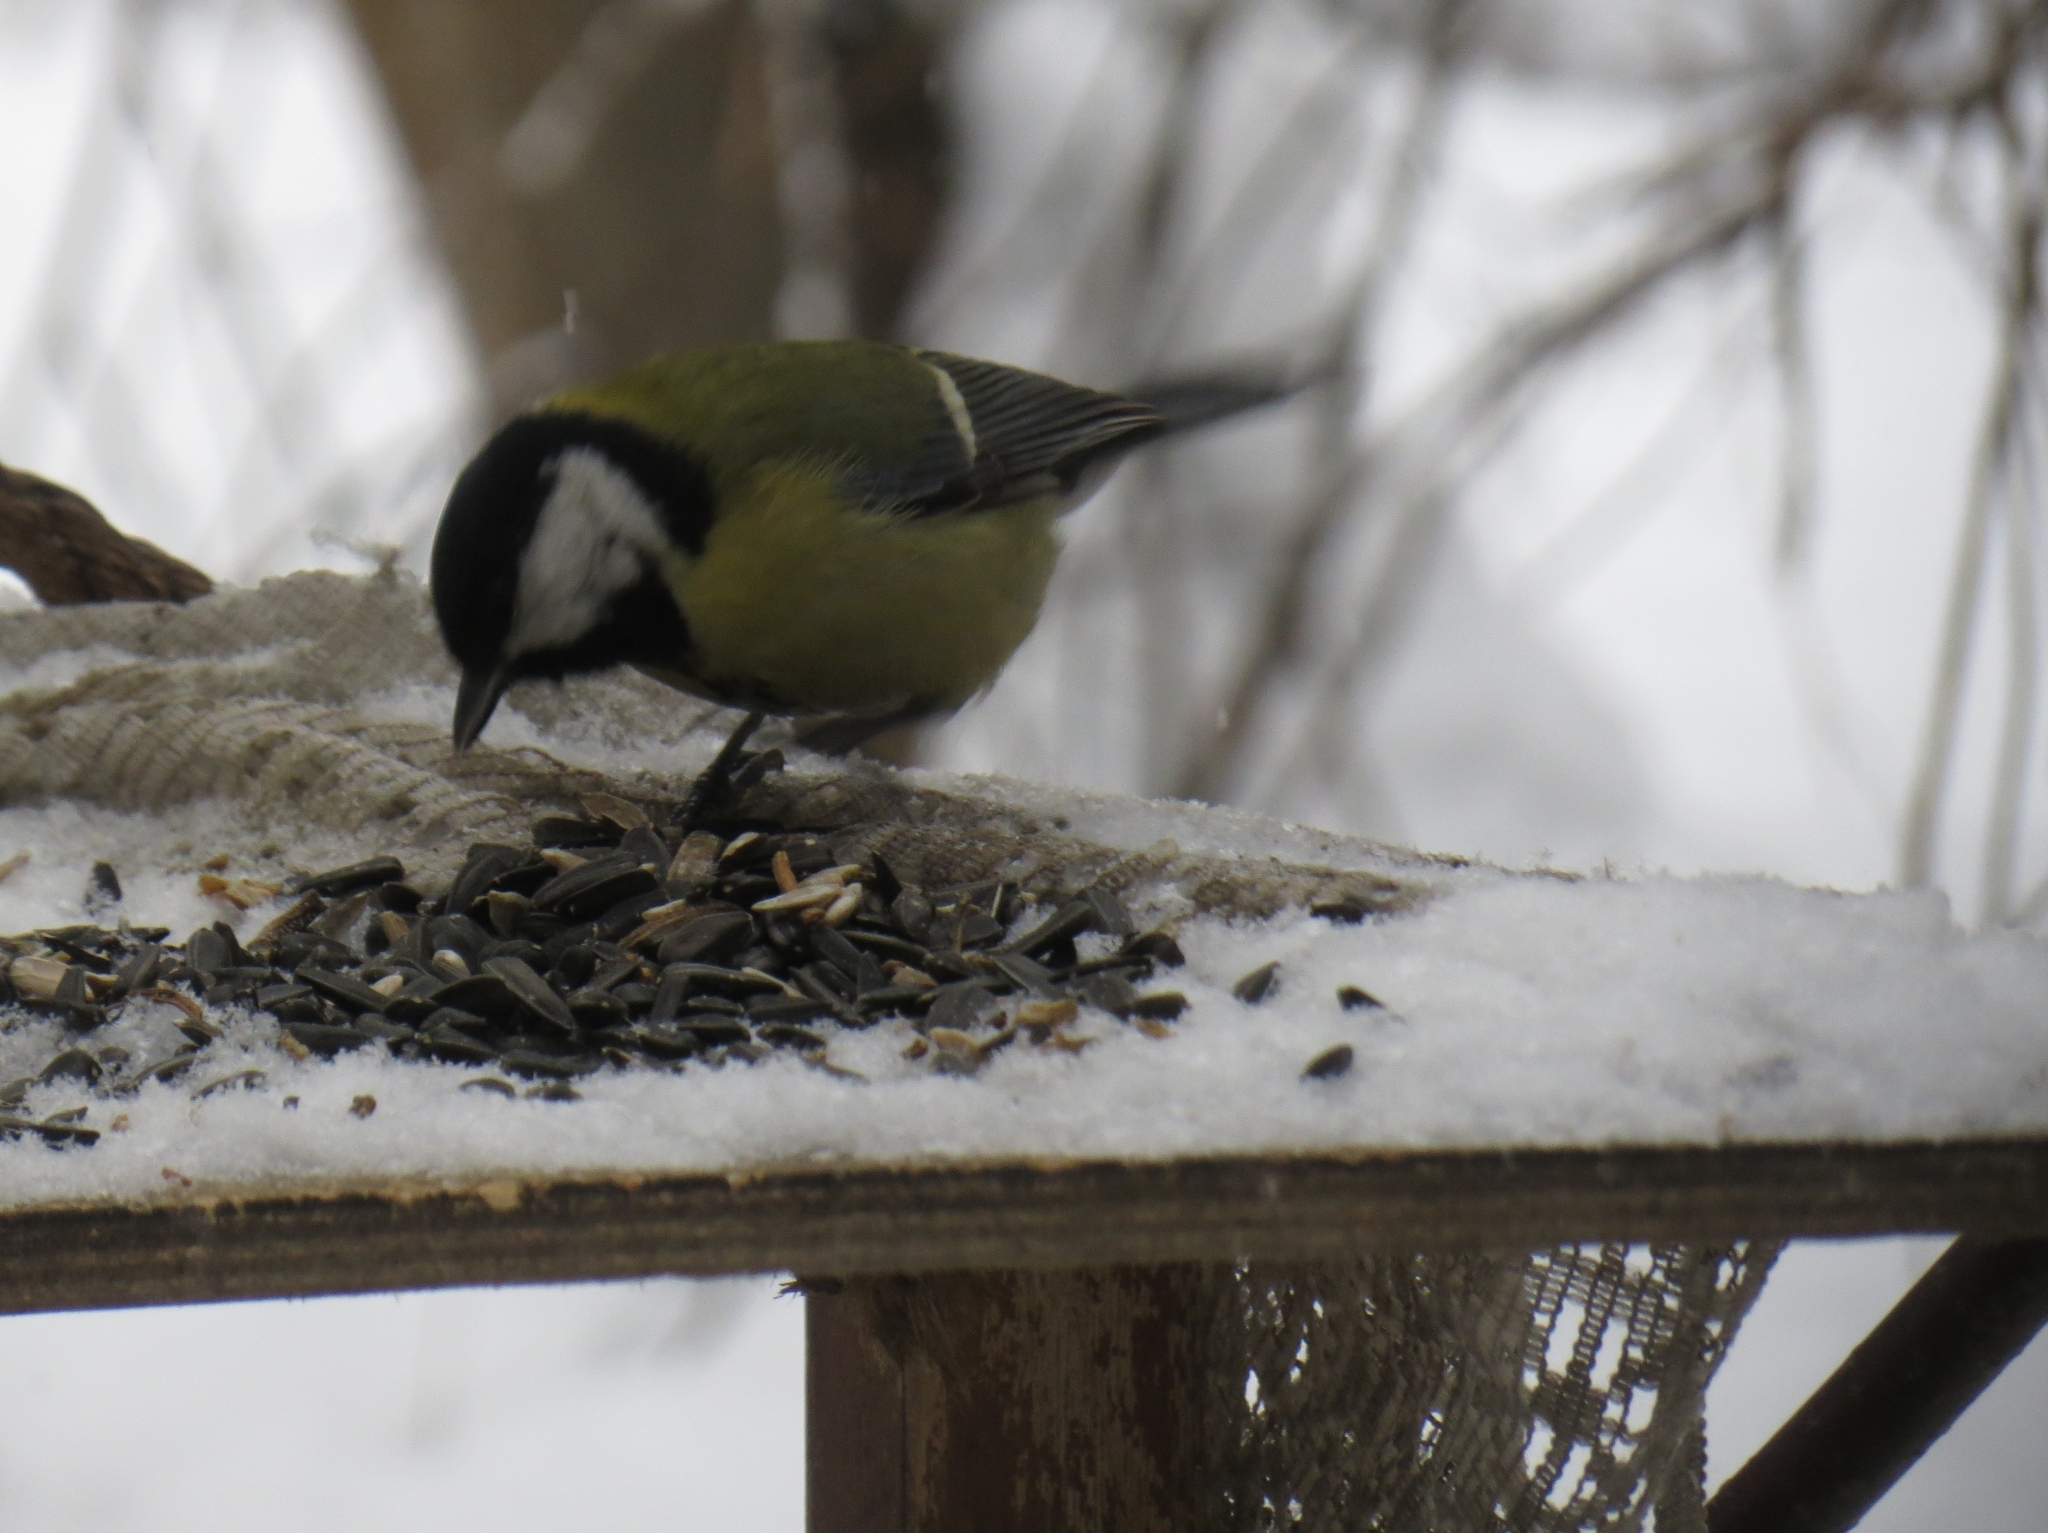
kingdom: Animalia
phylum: Chordata
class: Aves
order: Passeriformes
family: Paridae
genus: Parus
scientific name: Parus major
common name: Great tit
